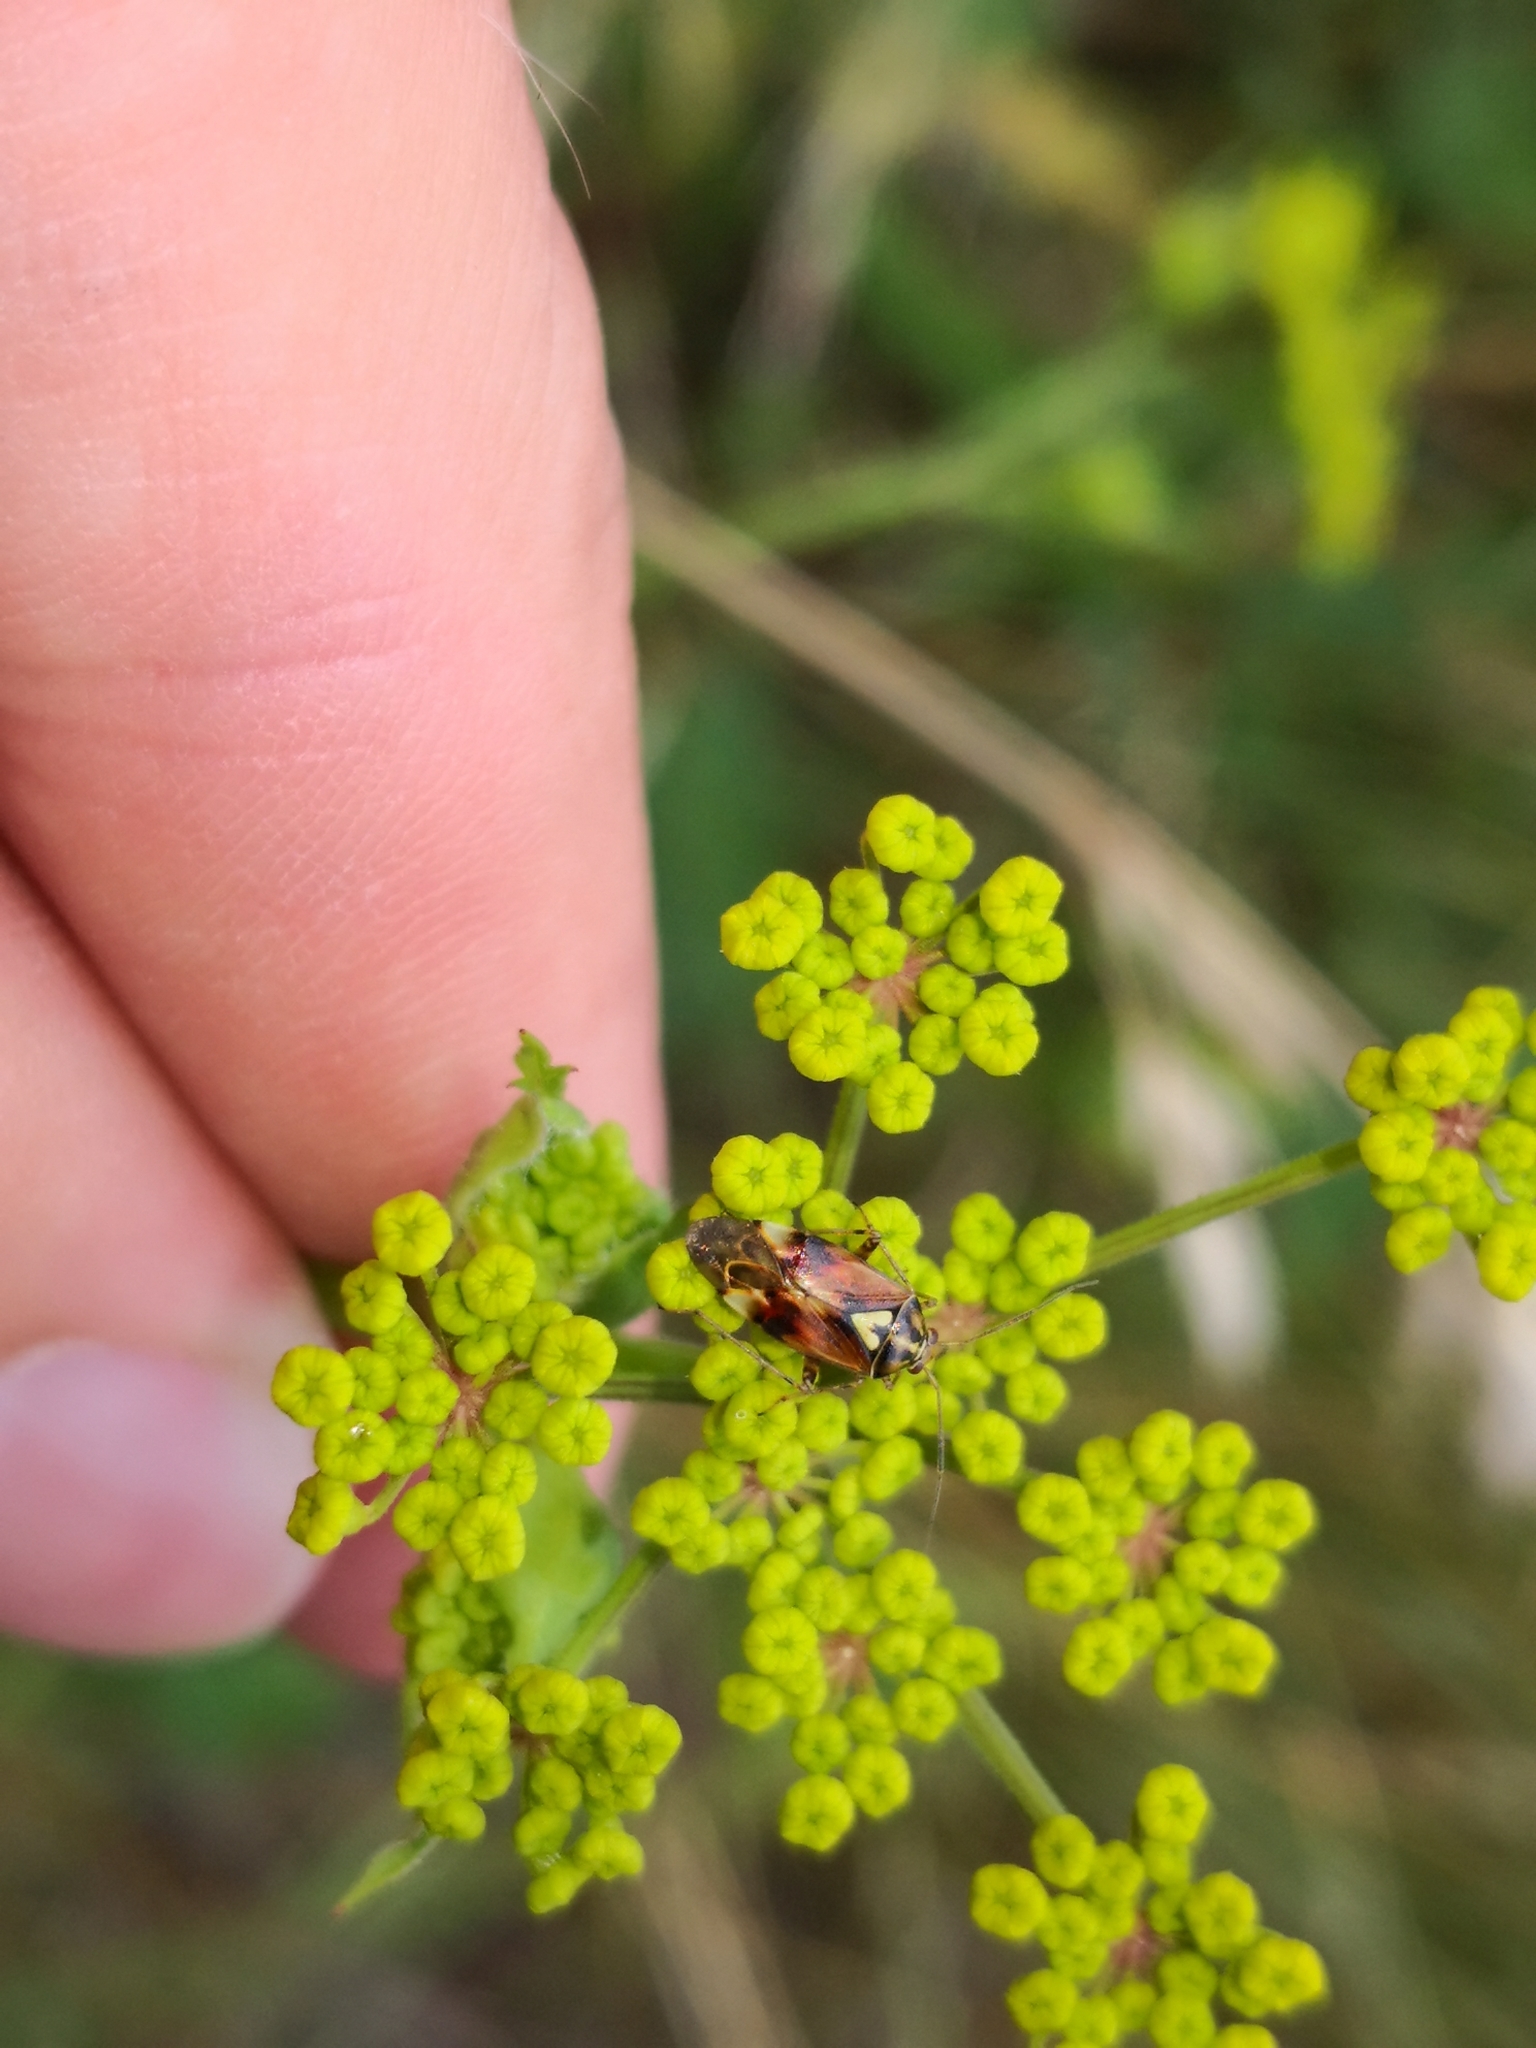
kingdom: Animalia
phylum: Arthropoda
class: Insecta
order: Hemiptera
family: Miridae
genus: Lygus
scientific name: Lygus pratensis
